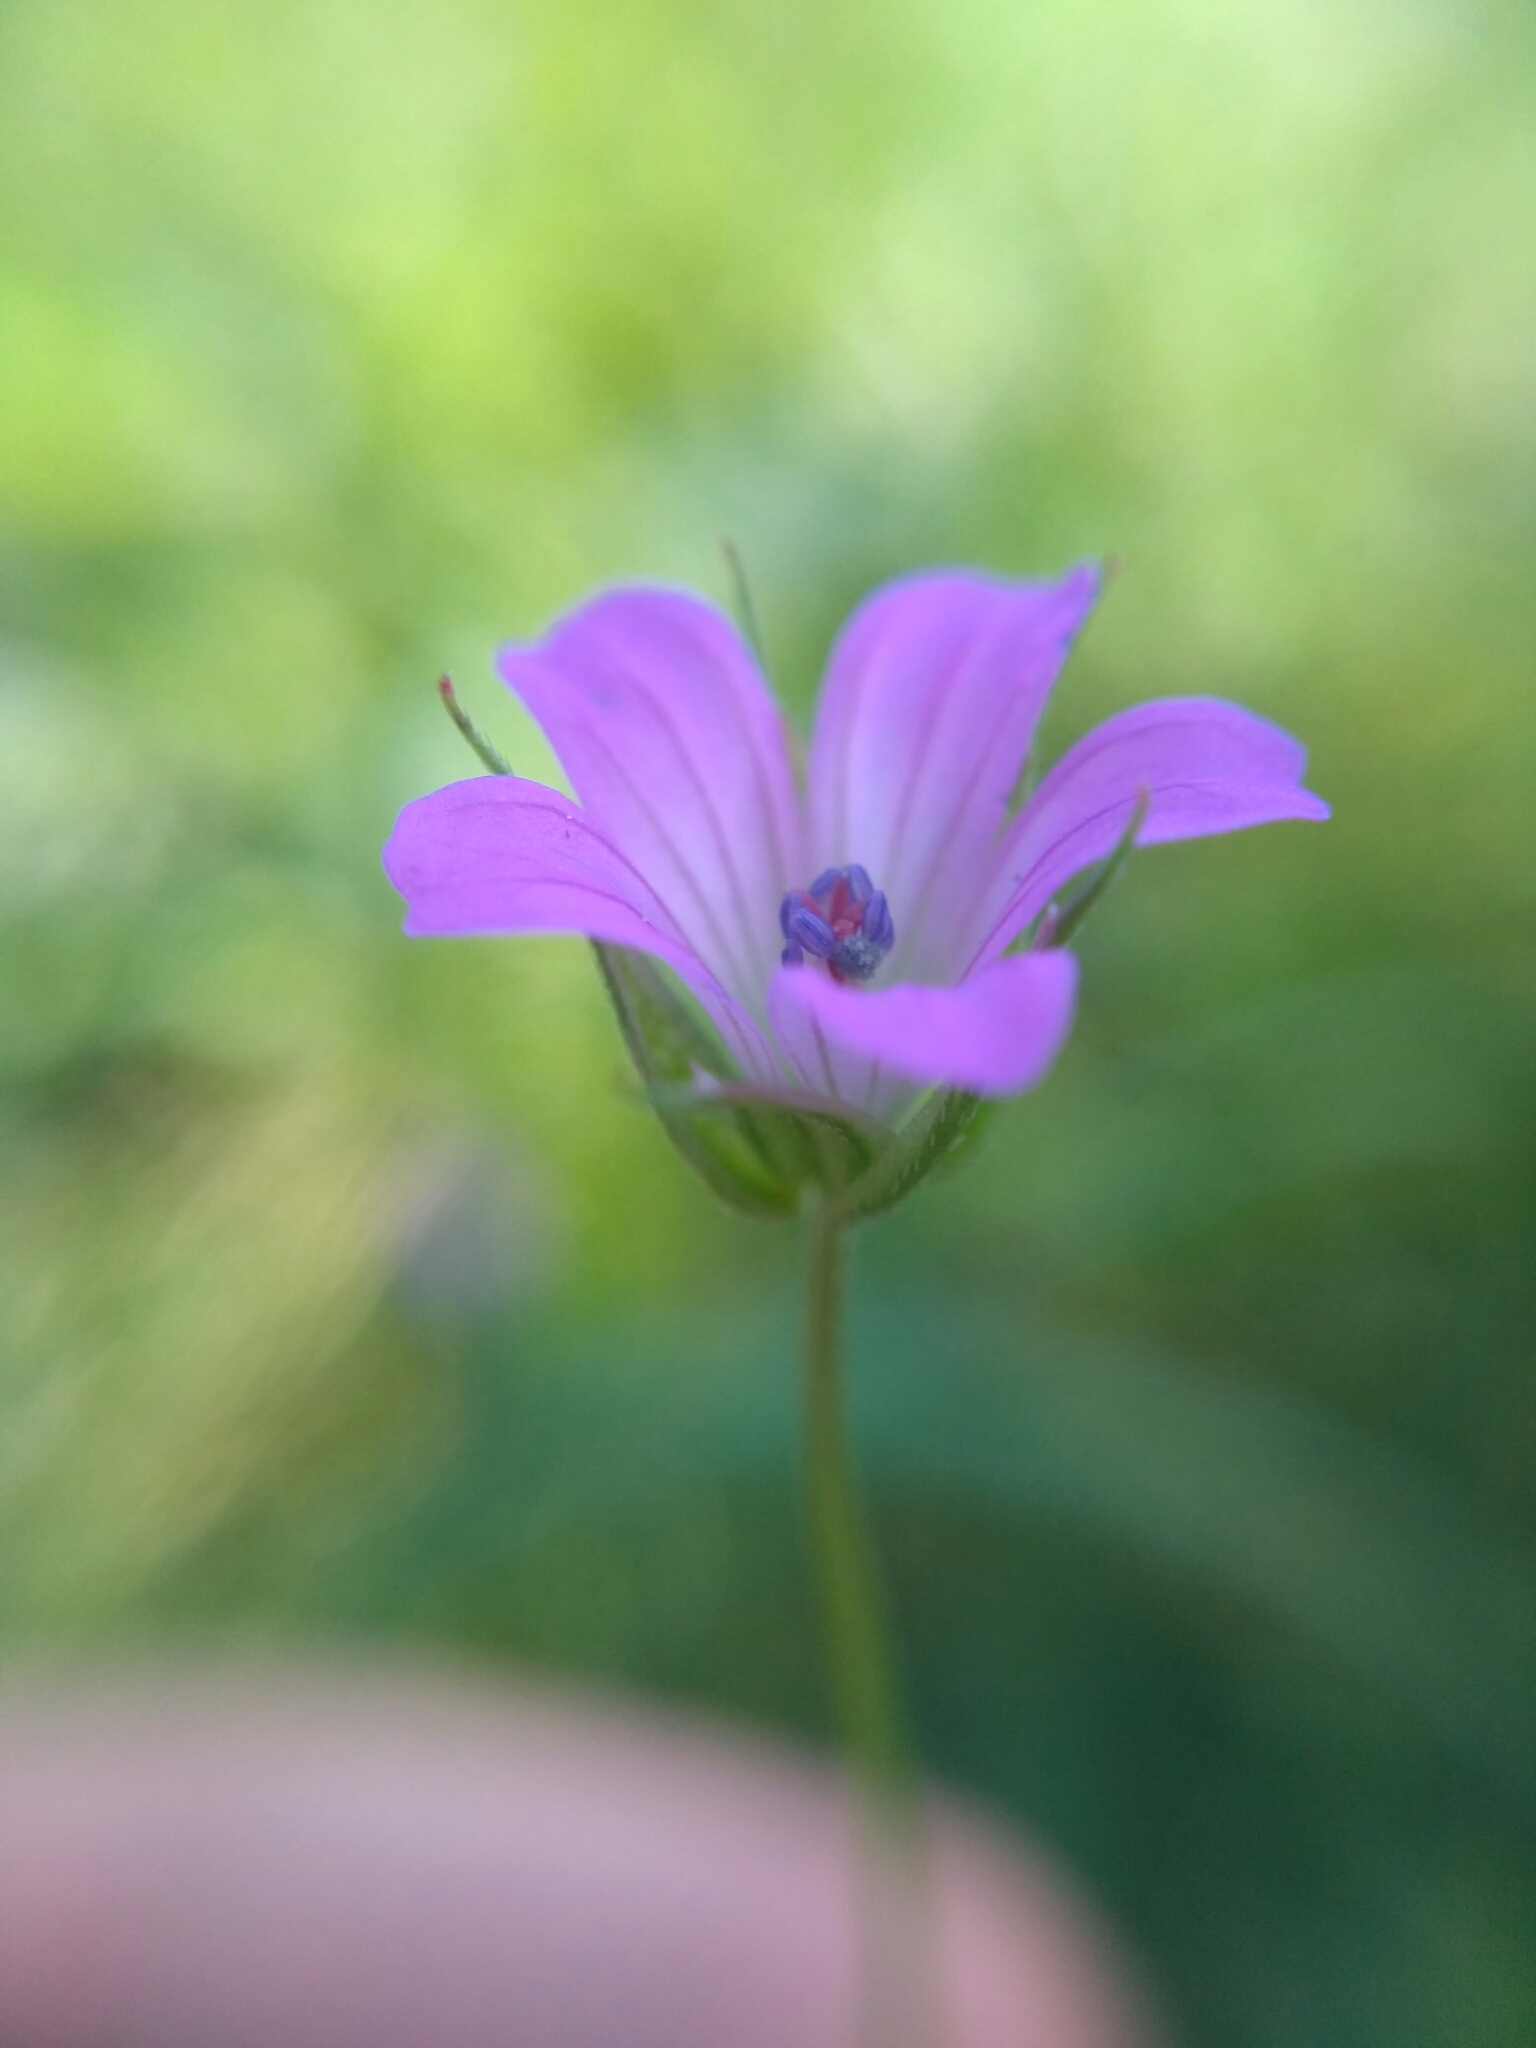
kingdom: Plantae
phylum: Tracheophyta
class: Magnoliopsida
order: Geraniales
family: Geraniaceae
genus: Geranium
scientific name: Geranium columbinum
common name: Long-stalked crane's-bill
